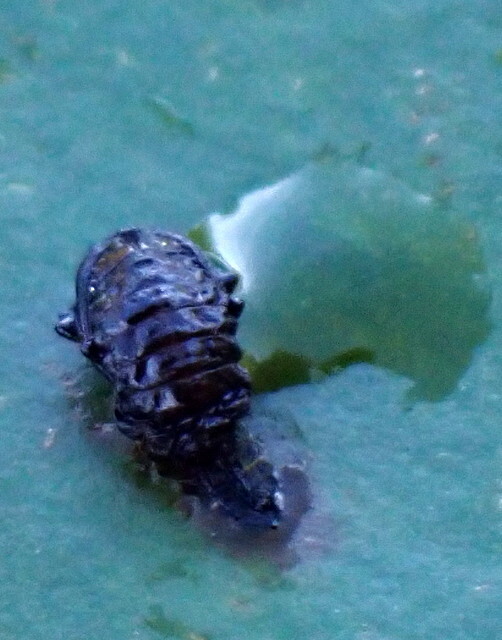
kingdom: Animalia
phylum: Arthropoda
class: Insecta
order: Coleoptera
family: Chrysomelidae
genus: Galerucella
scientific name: Galerucella nymphaeae
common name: Leaf beetle
